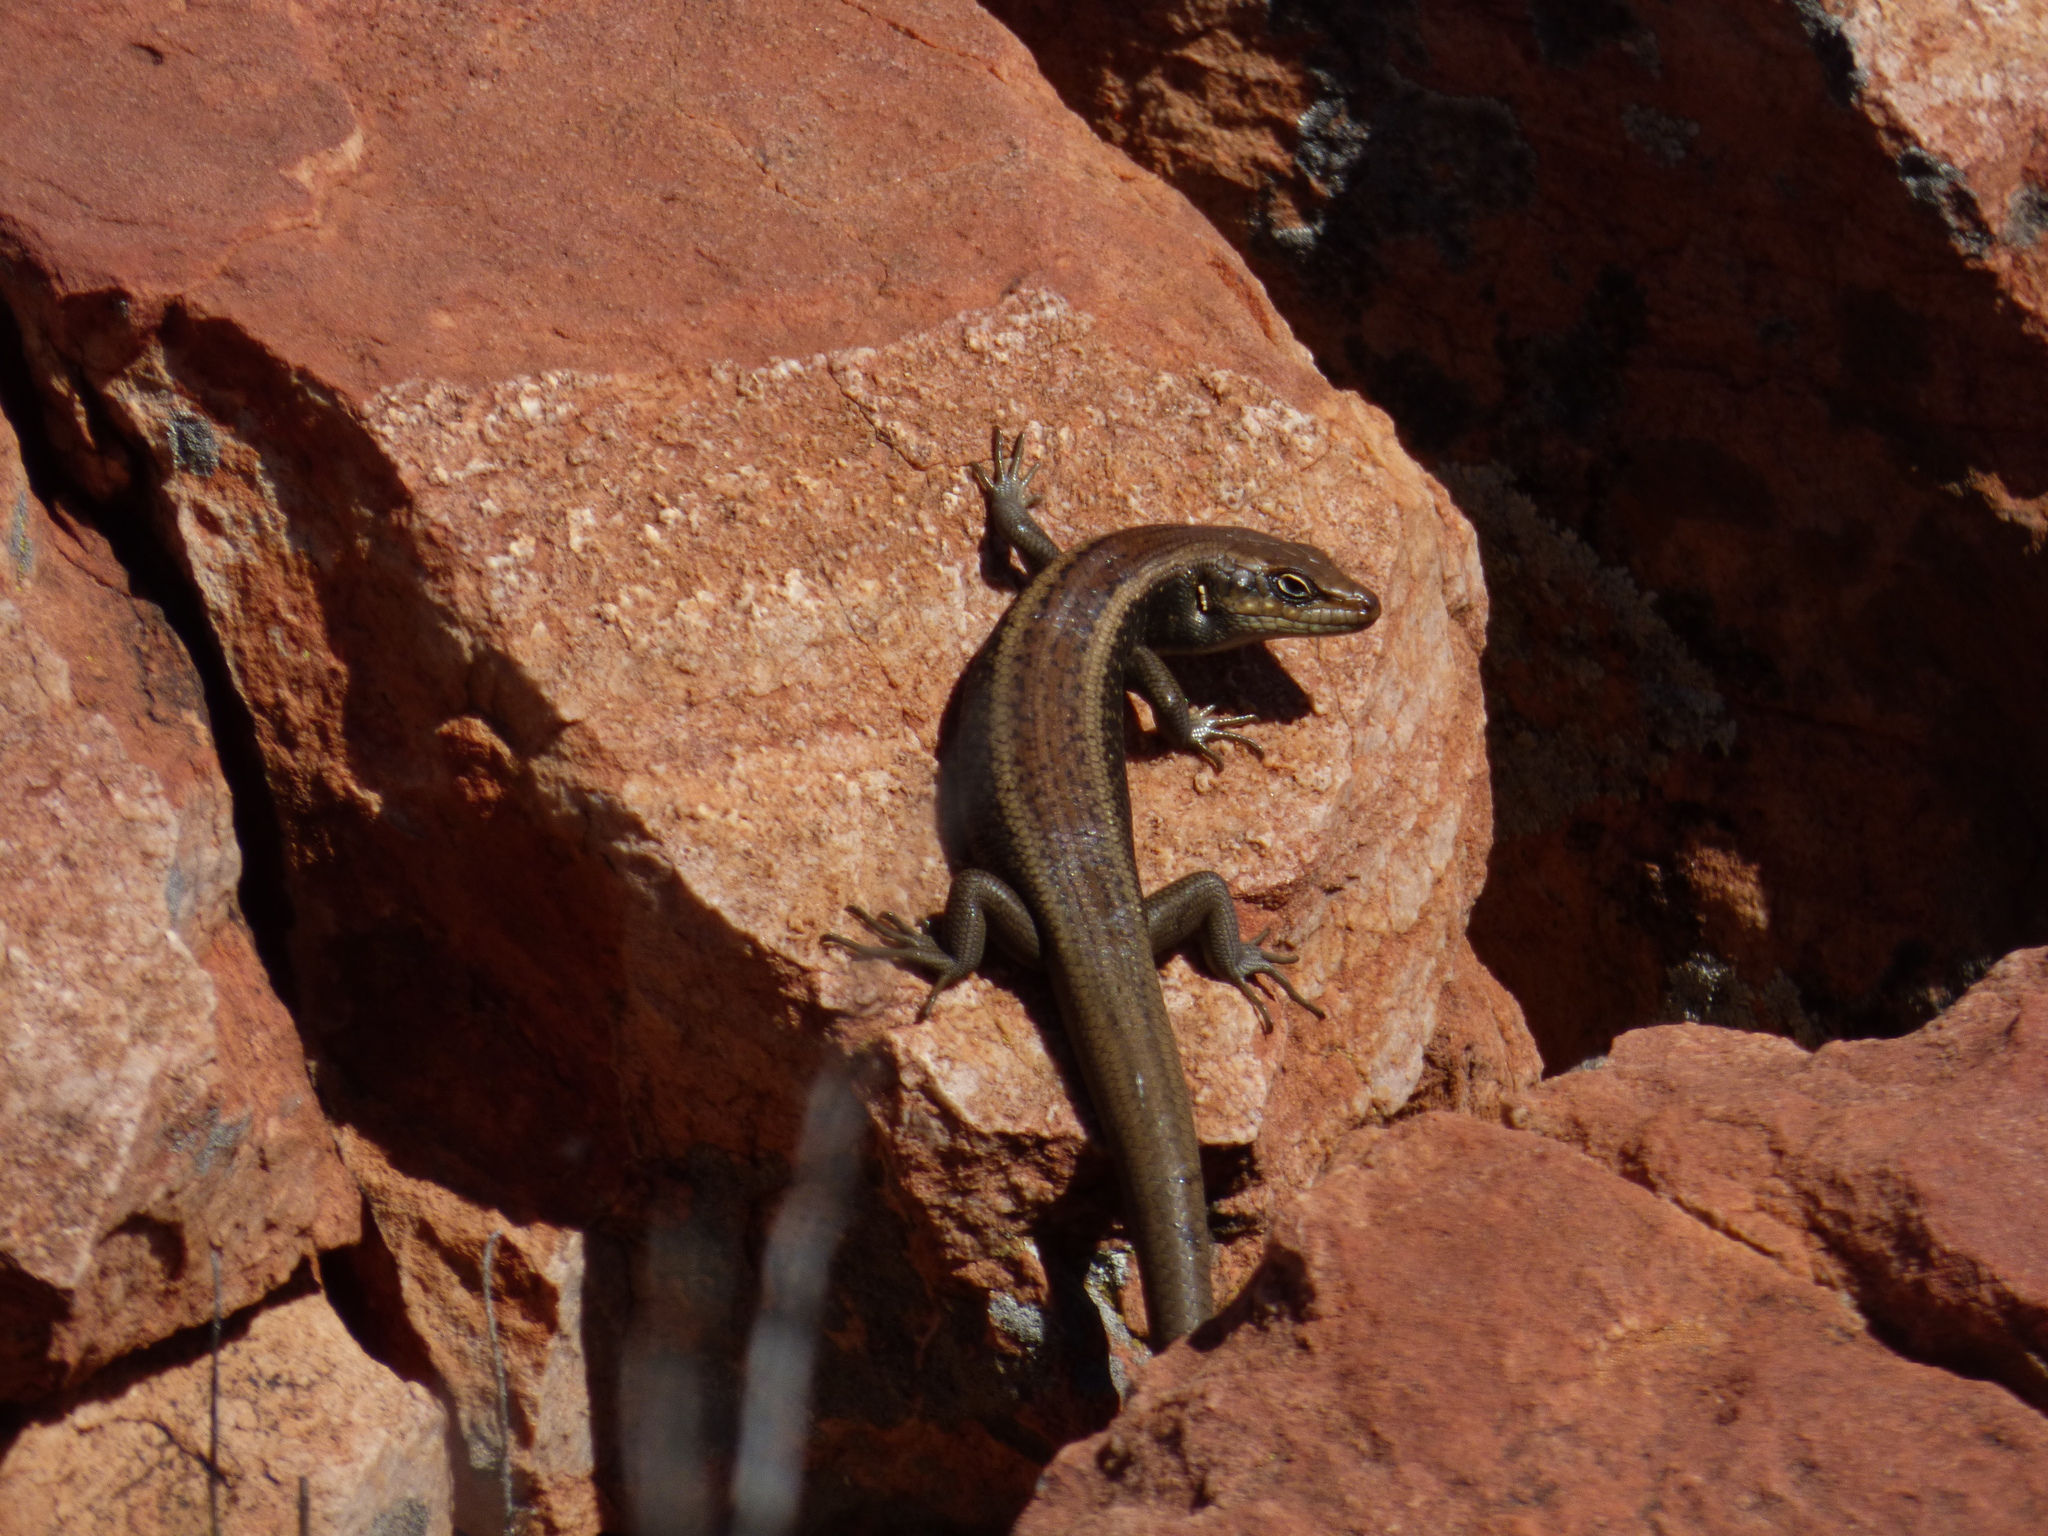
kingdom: Animalia
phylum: Chordata
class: Squamata
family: Scincidae
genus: Liopholis
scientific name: Liopholis personata
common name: Centralian ranges rock-skink
